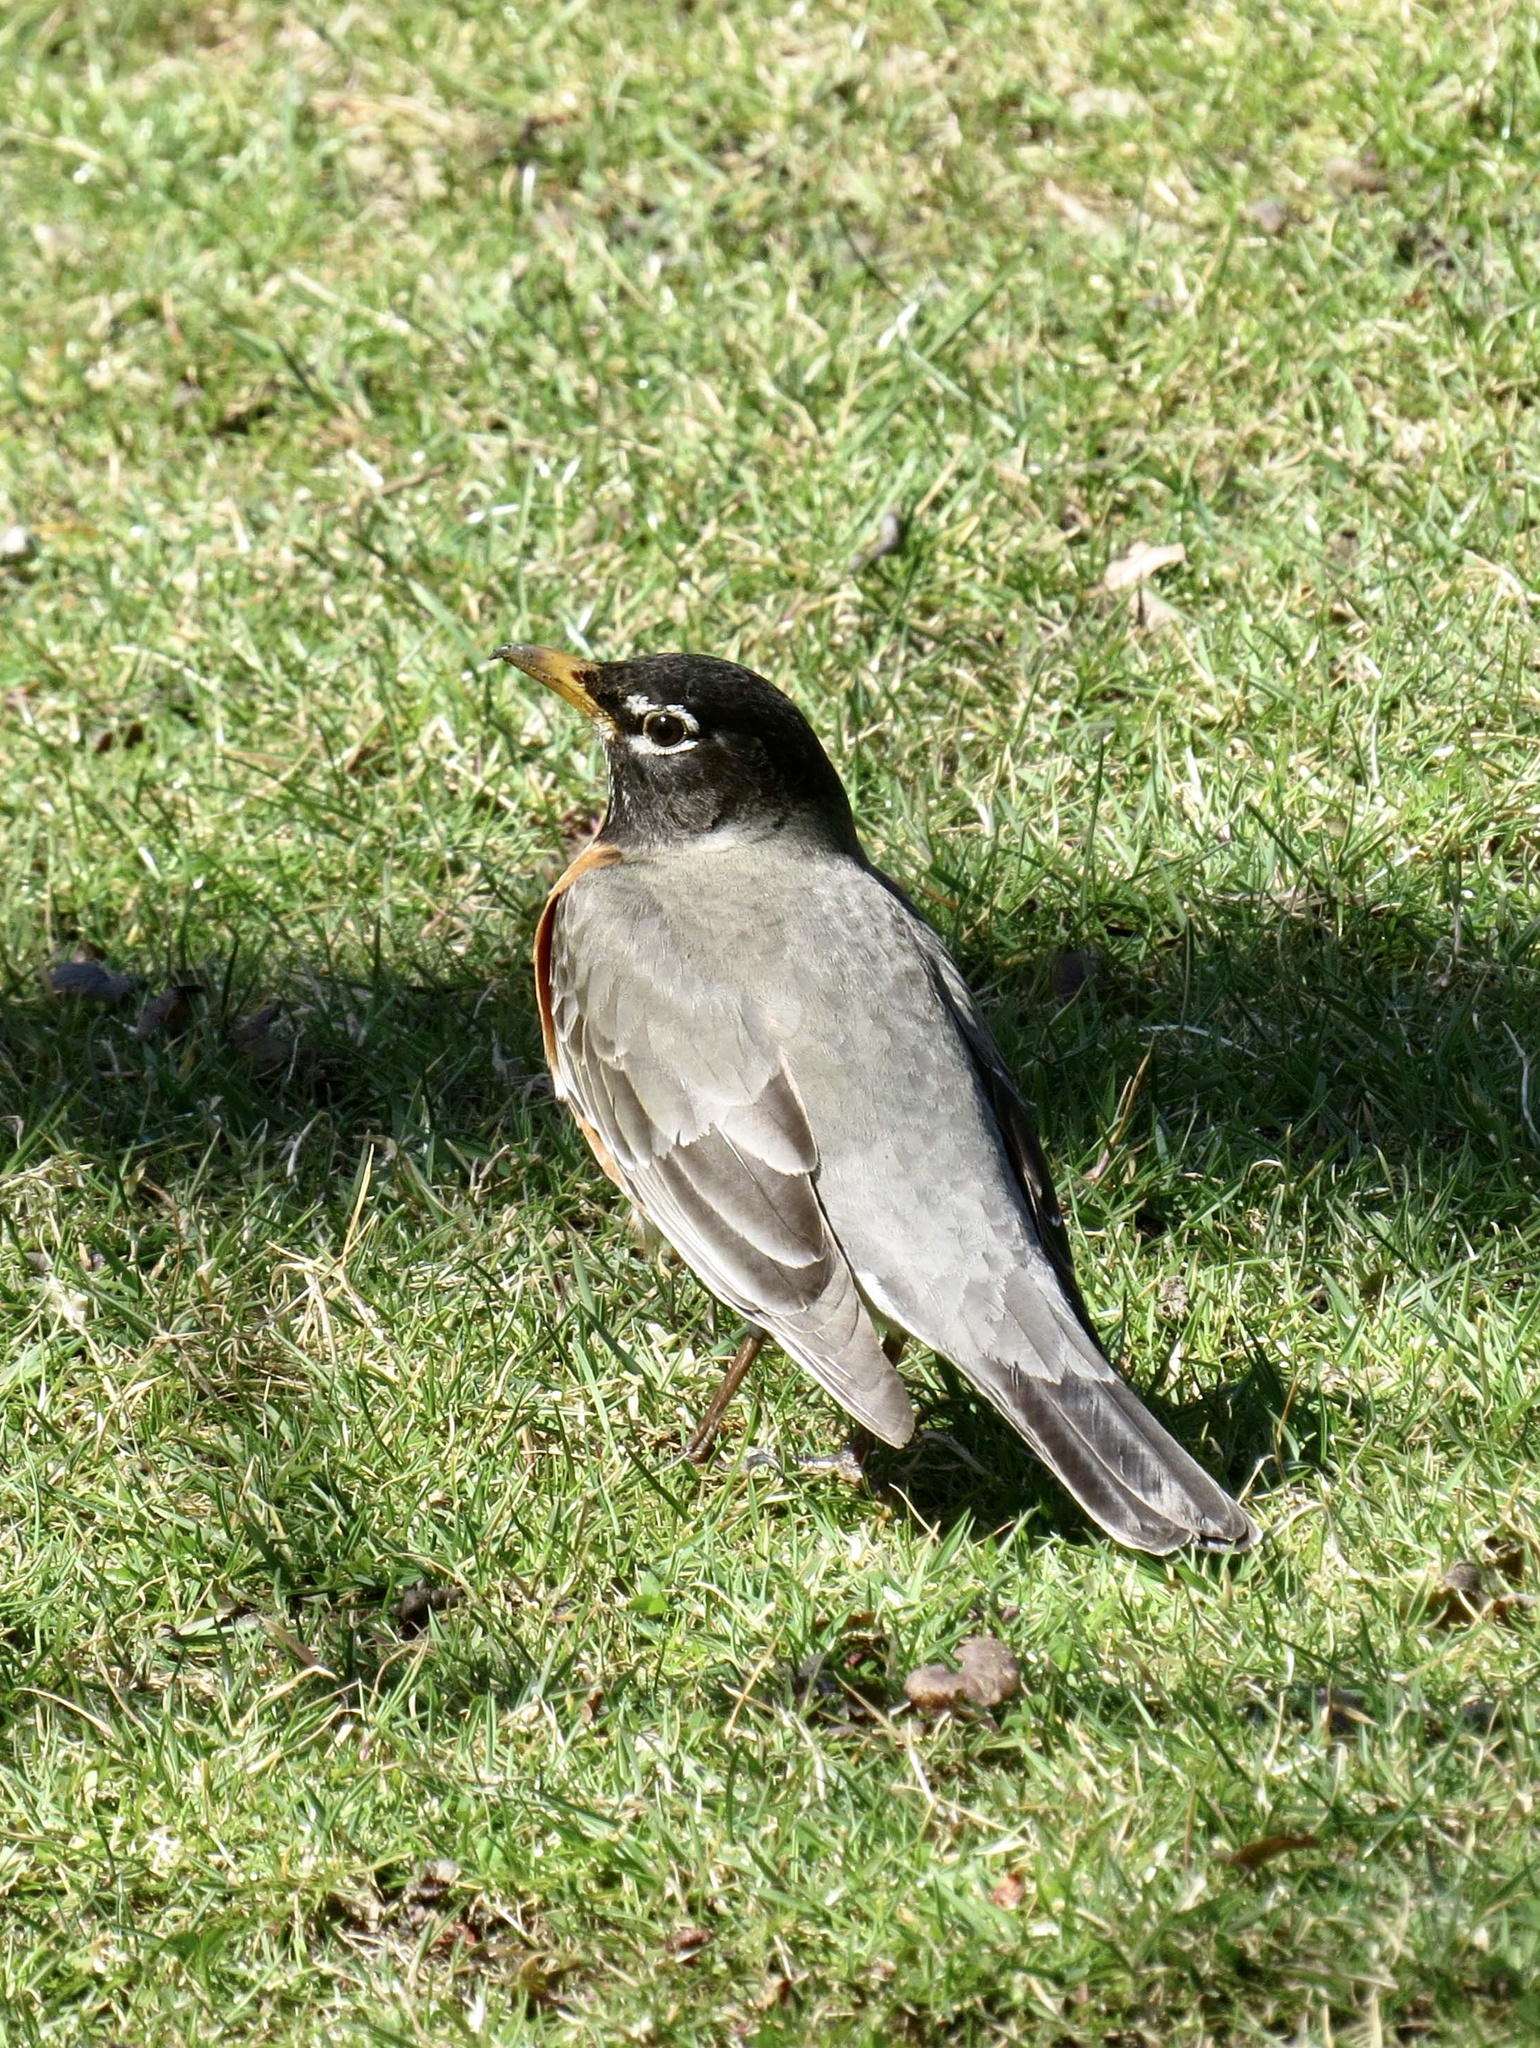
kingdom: Animalia
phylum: Chordata
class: Aves
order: Passeriformes
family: Turdidae
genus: Turdus
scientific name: Turdus migratorius
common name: American robin
